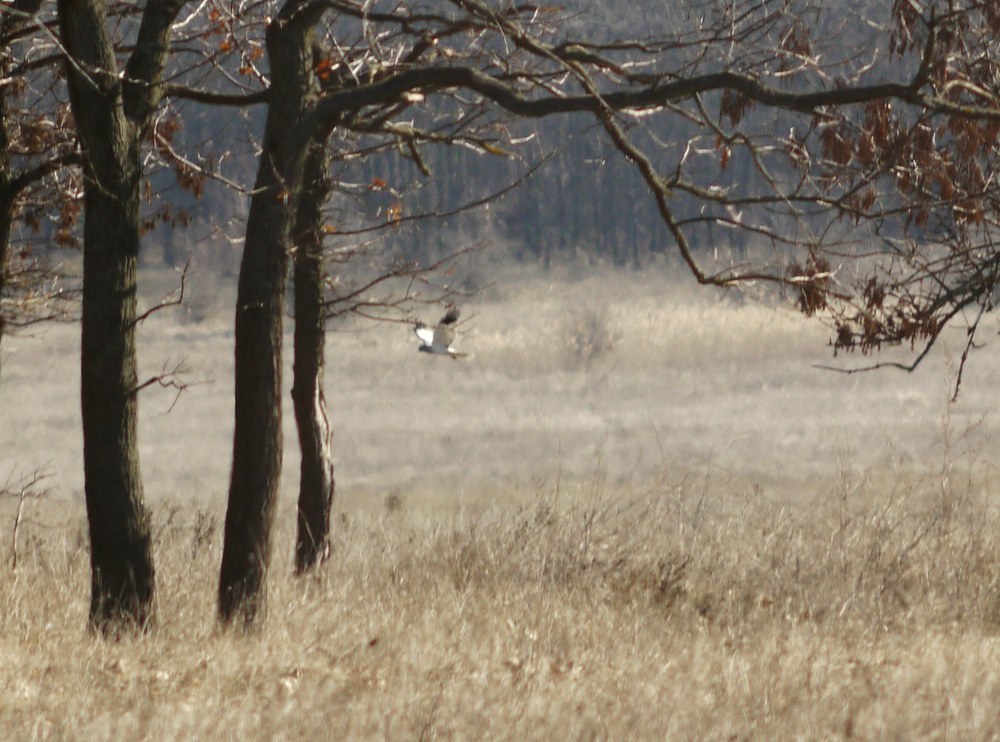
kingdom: Animalia
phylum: Chordata
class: Aves
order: Accipitriformes
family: Accipitridae
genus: Circus
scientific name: Circus cyaneus
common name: Hen harrier
